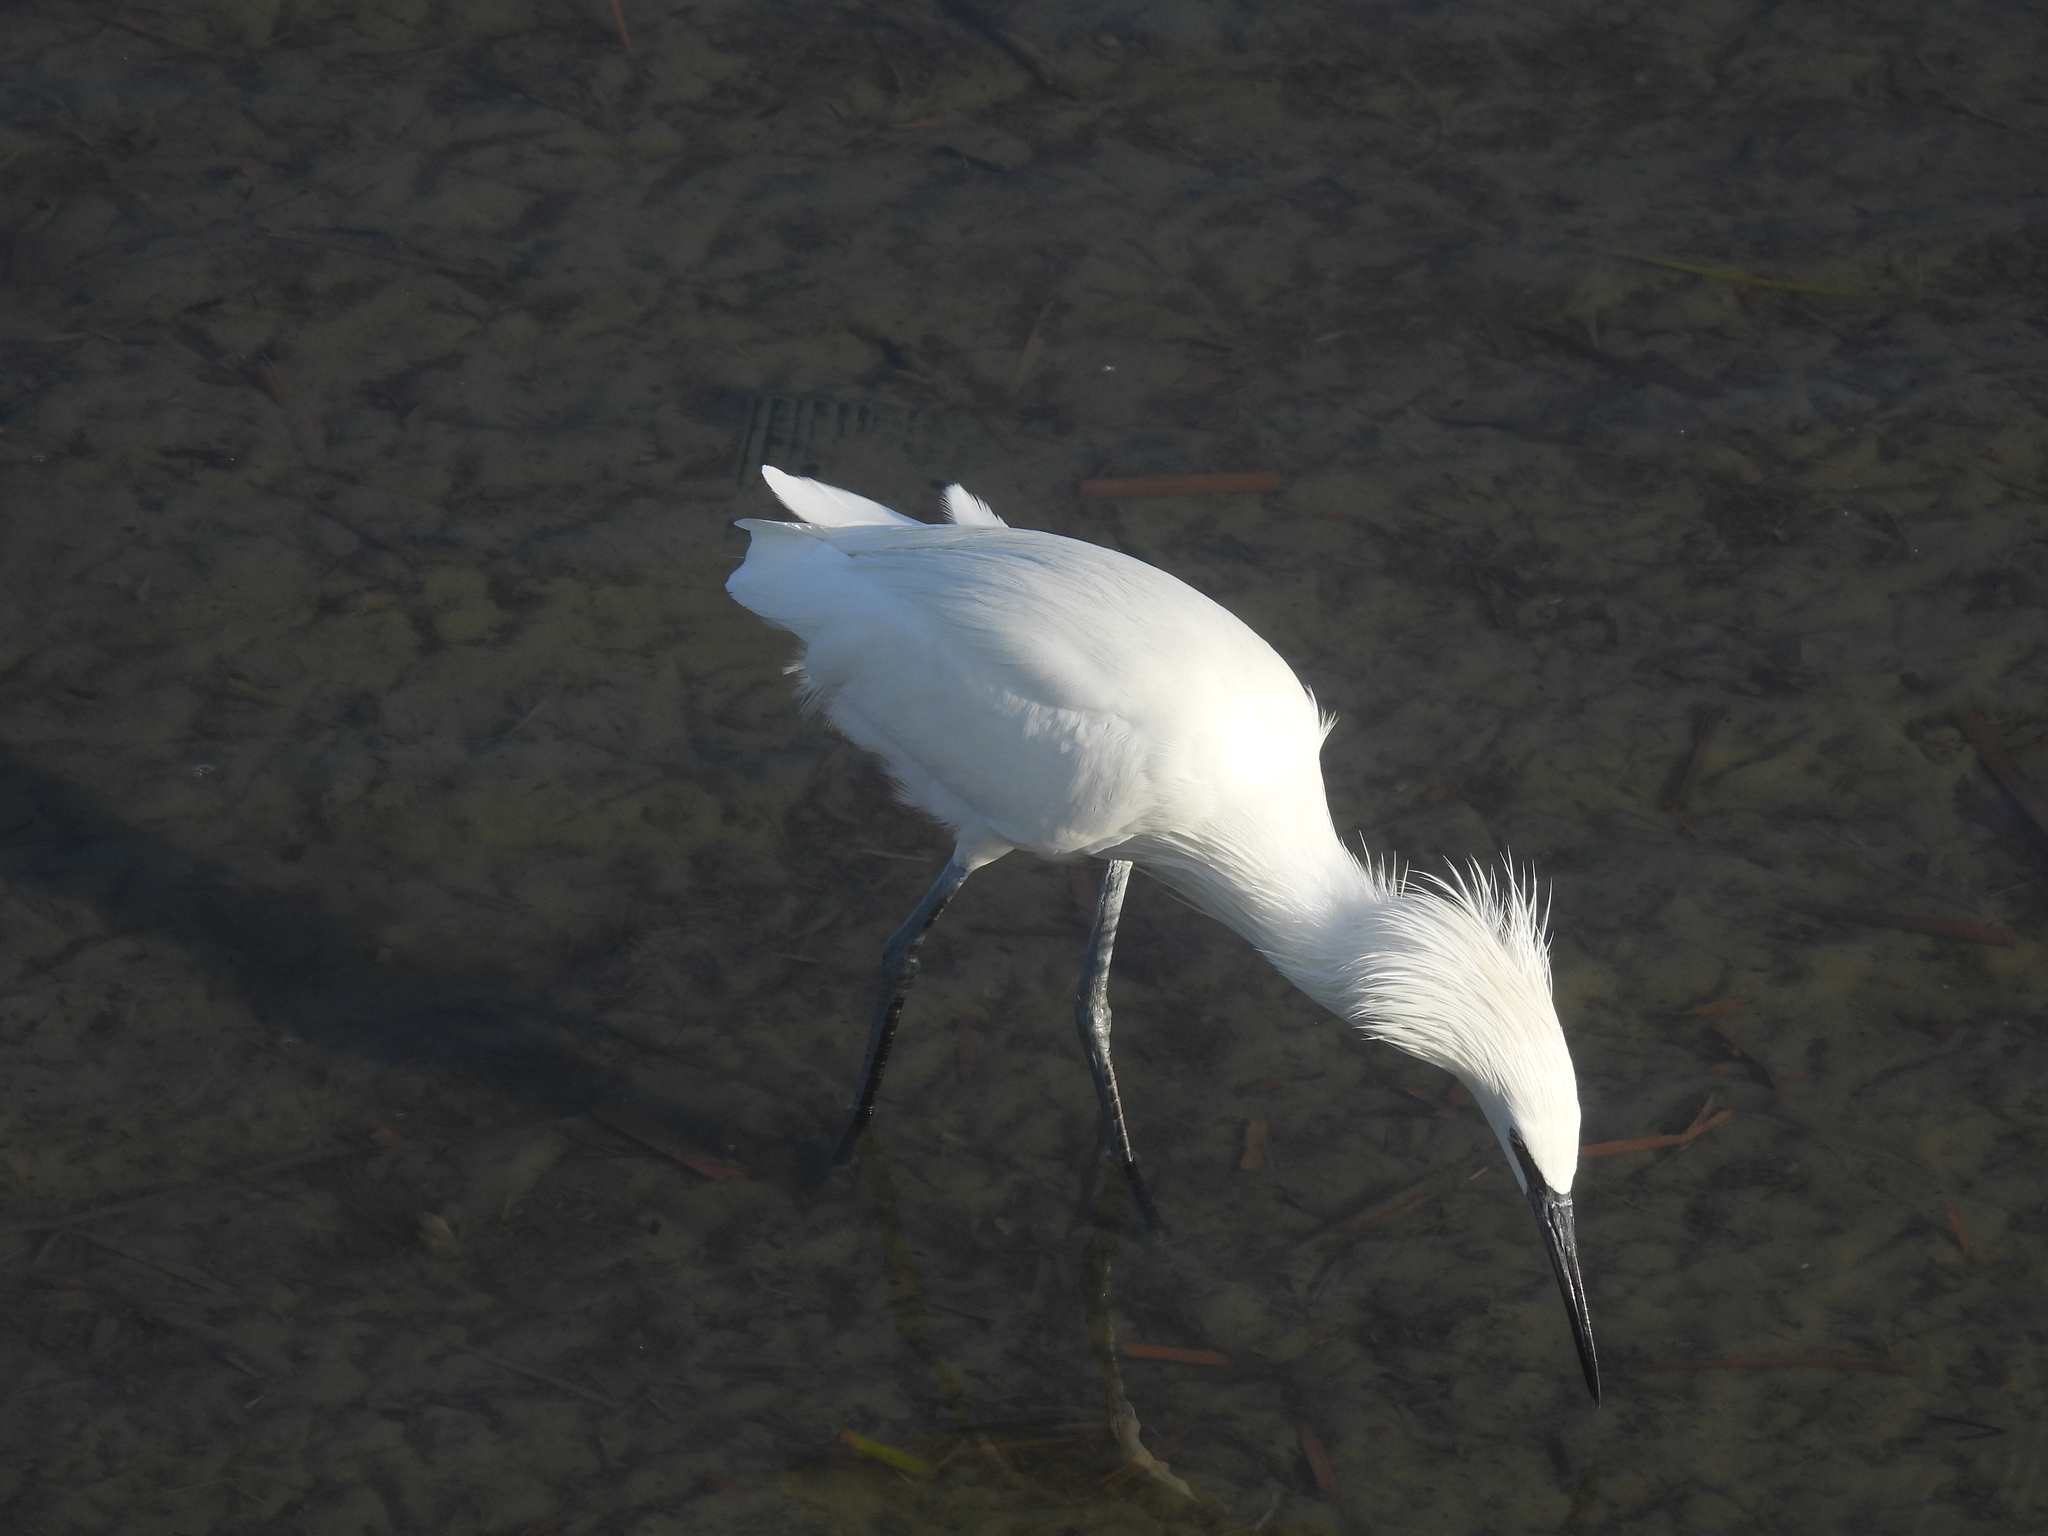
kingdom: Animalia
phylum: Chordata
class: Aves
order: Pelecaniformes
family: Ardeidae
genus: Egretta
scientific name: Egretta rufescens
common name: Reddish egret
